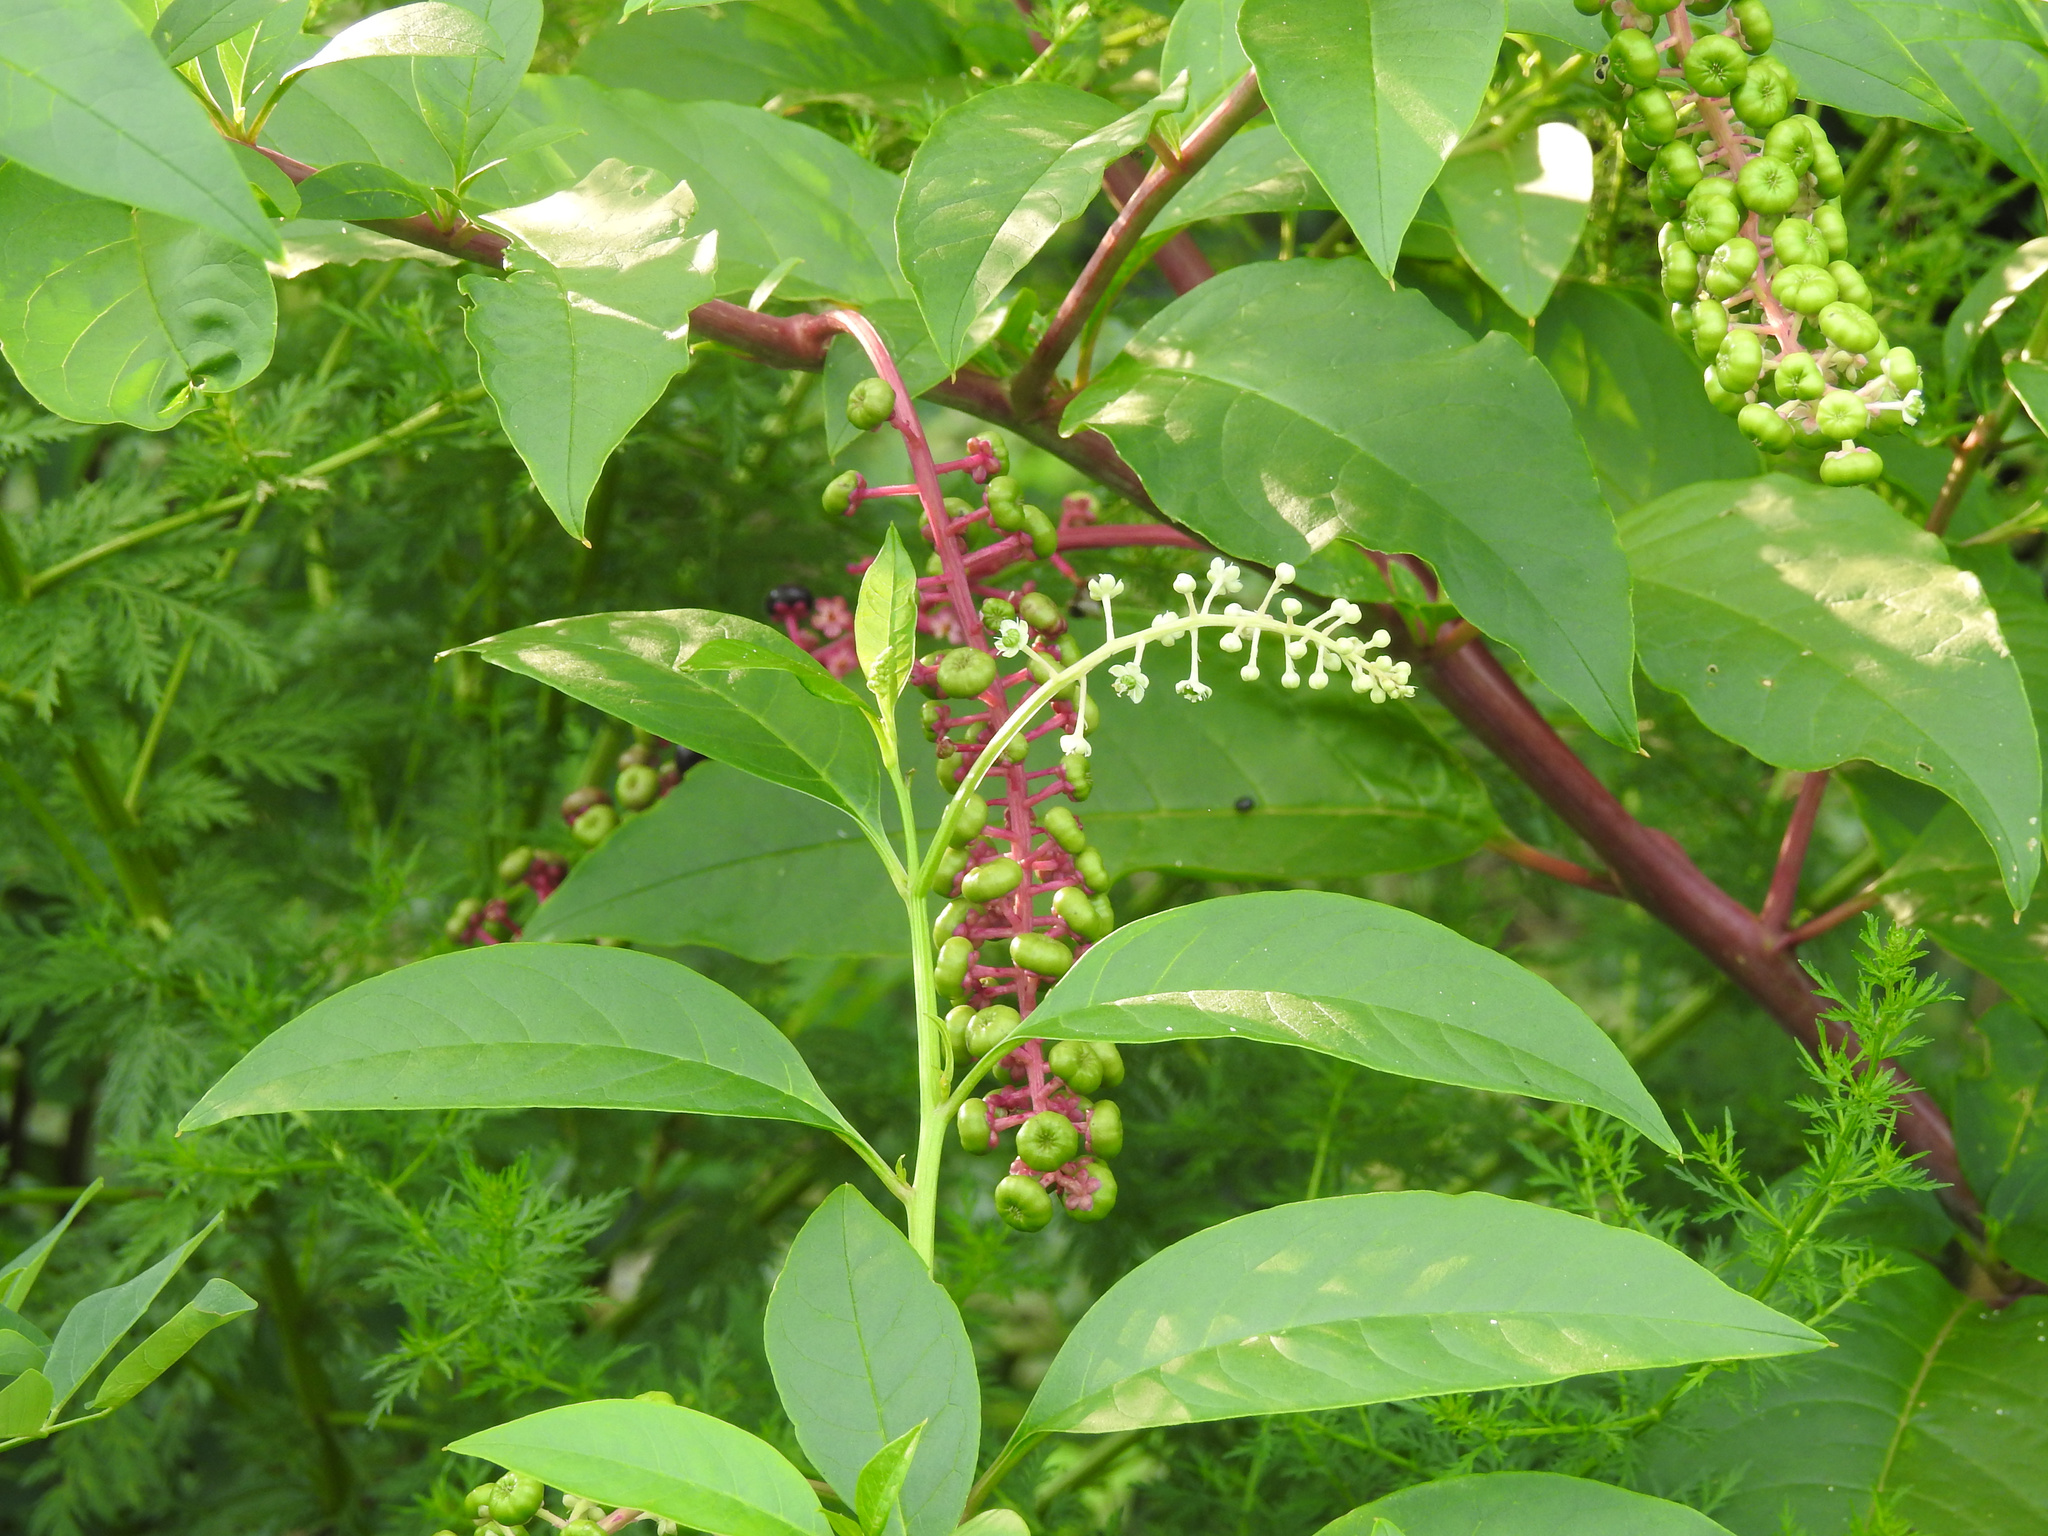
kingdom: Plantae
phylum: Tracheophyta
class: Magnoliopsida
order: Caryophyllales
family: Phytolaccaceae
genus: Phytolacca
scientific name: Phytolacca americana
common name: American pokeweed
